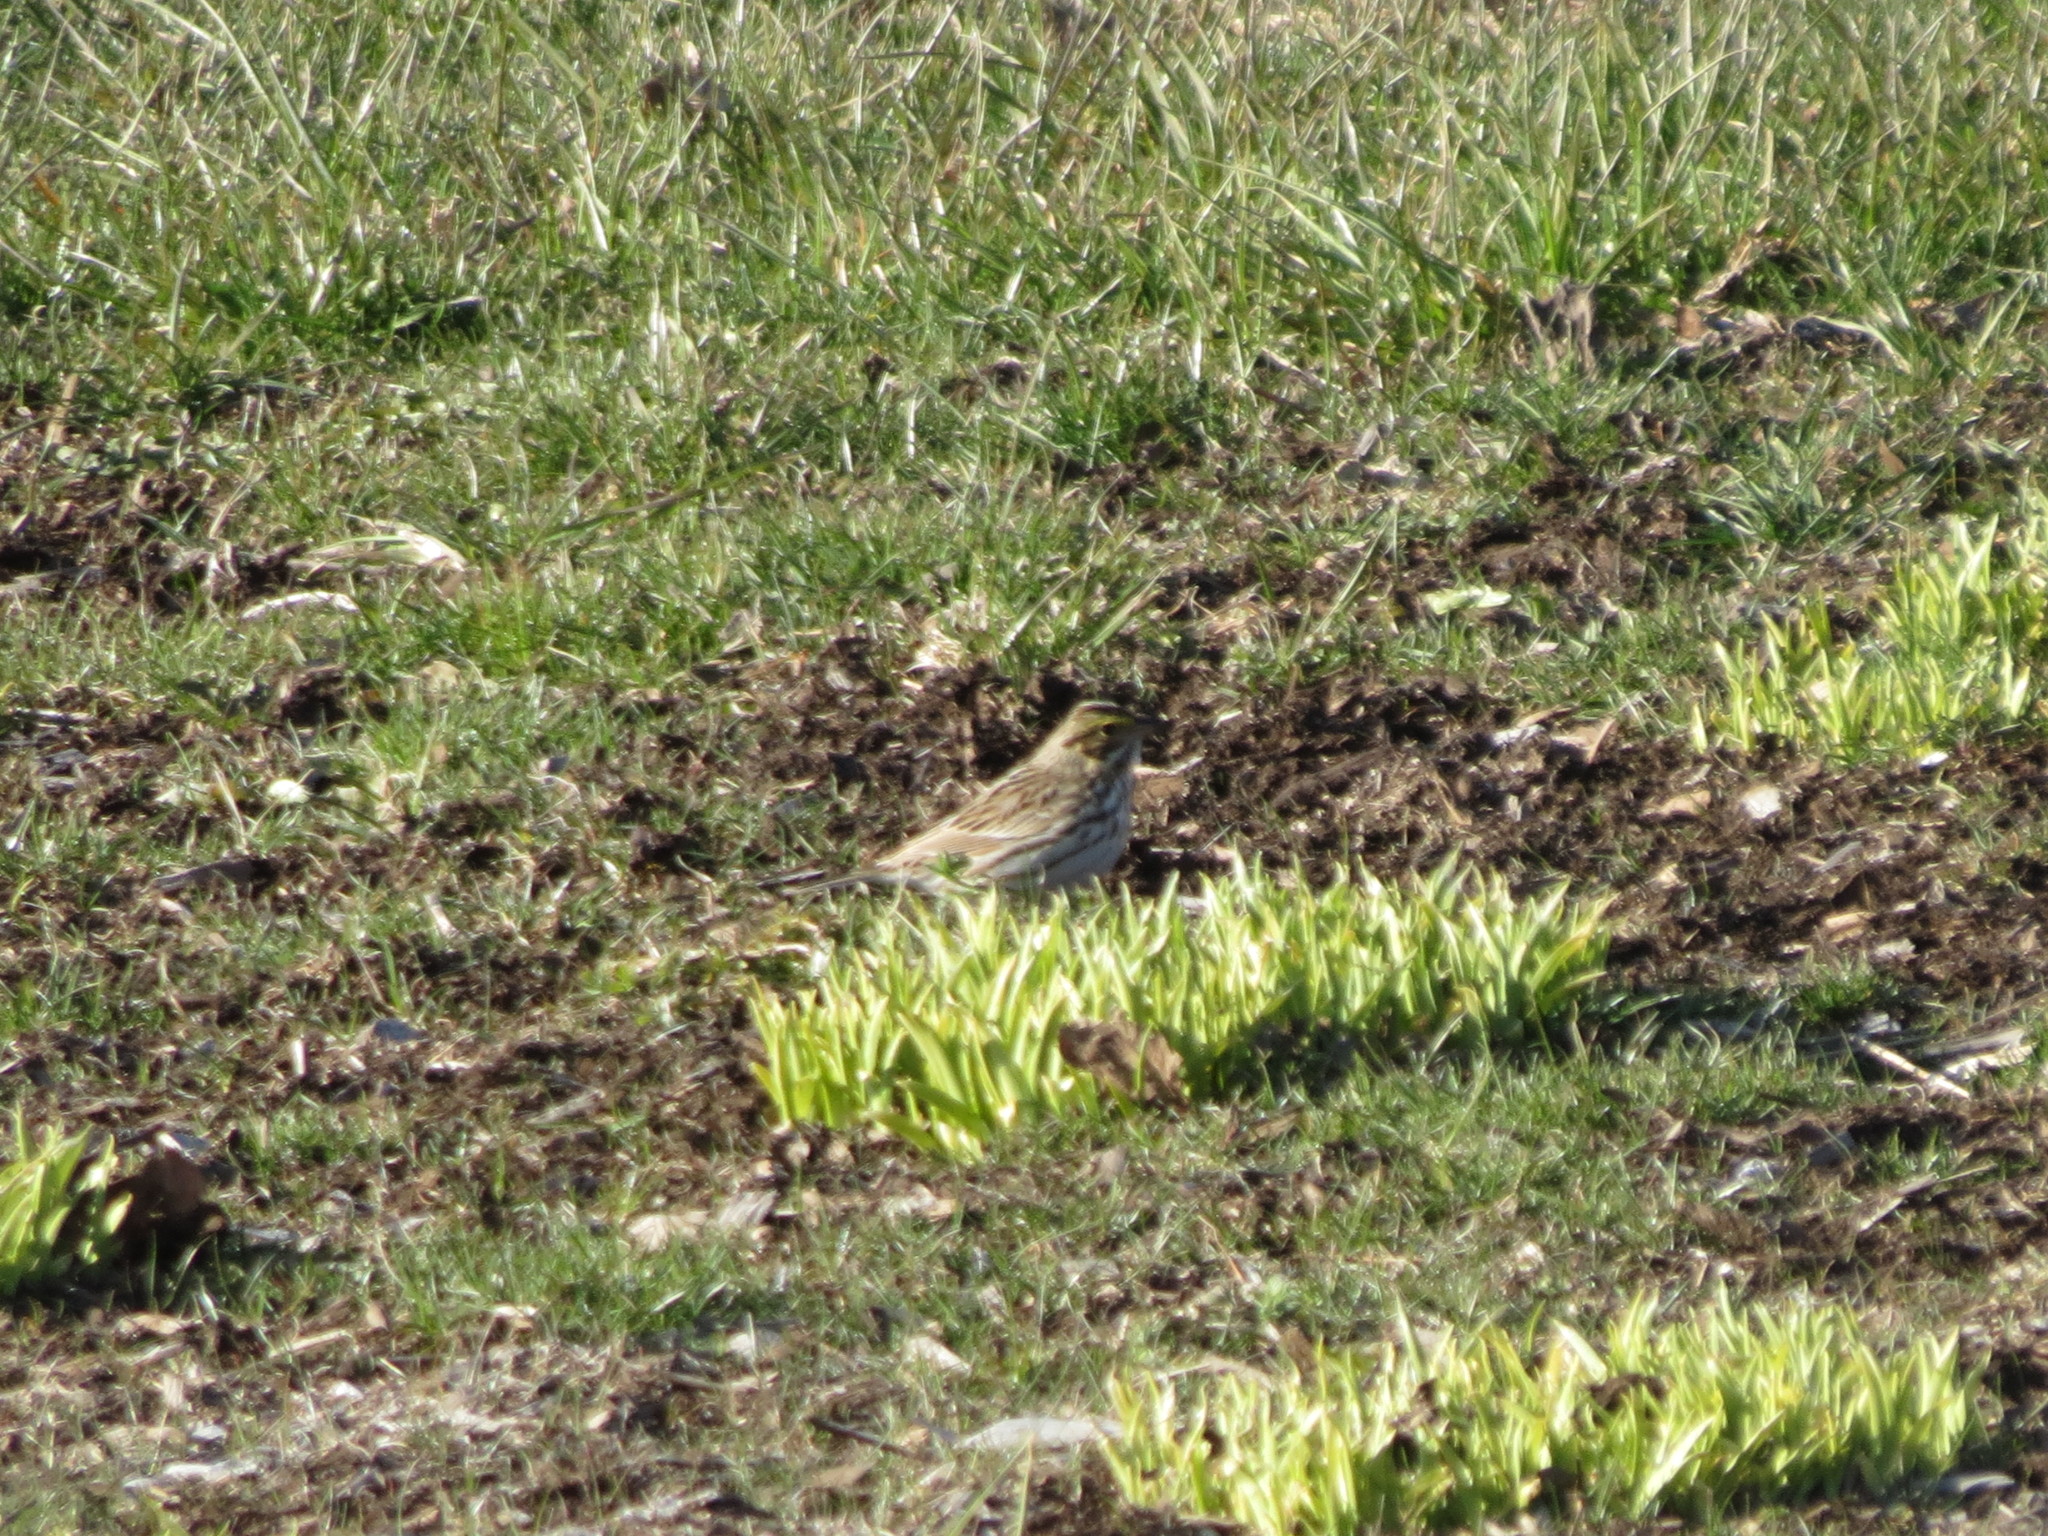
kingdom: Animalia
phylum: Chordata
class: Aves
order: Passeriformes
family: Passerellidae
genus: Passerculus
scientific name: Passerculus sandwichensis
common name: Savannah sparrow
